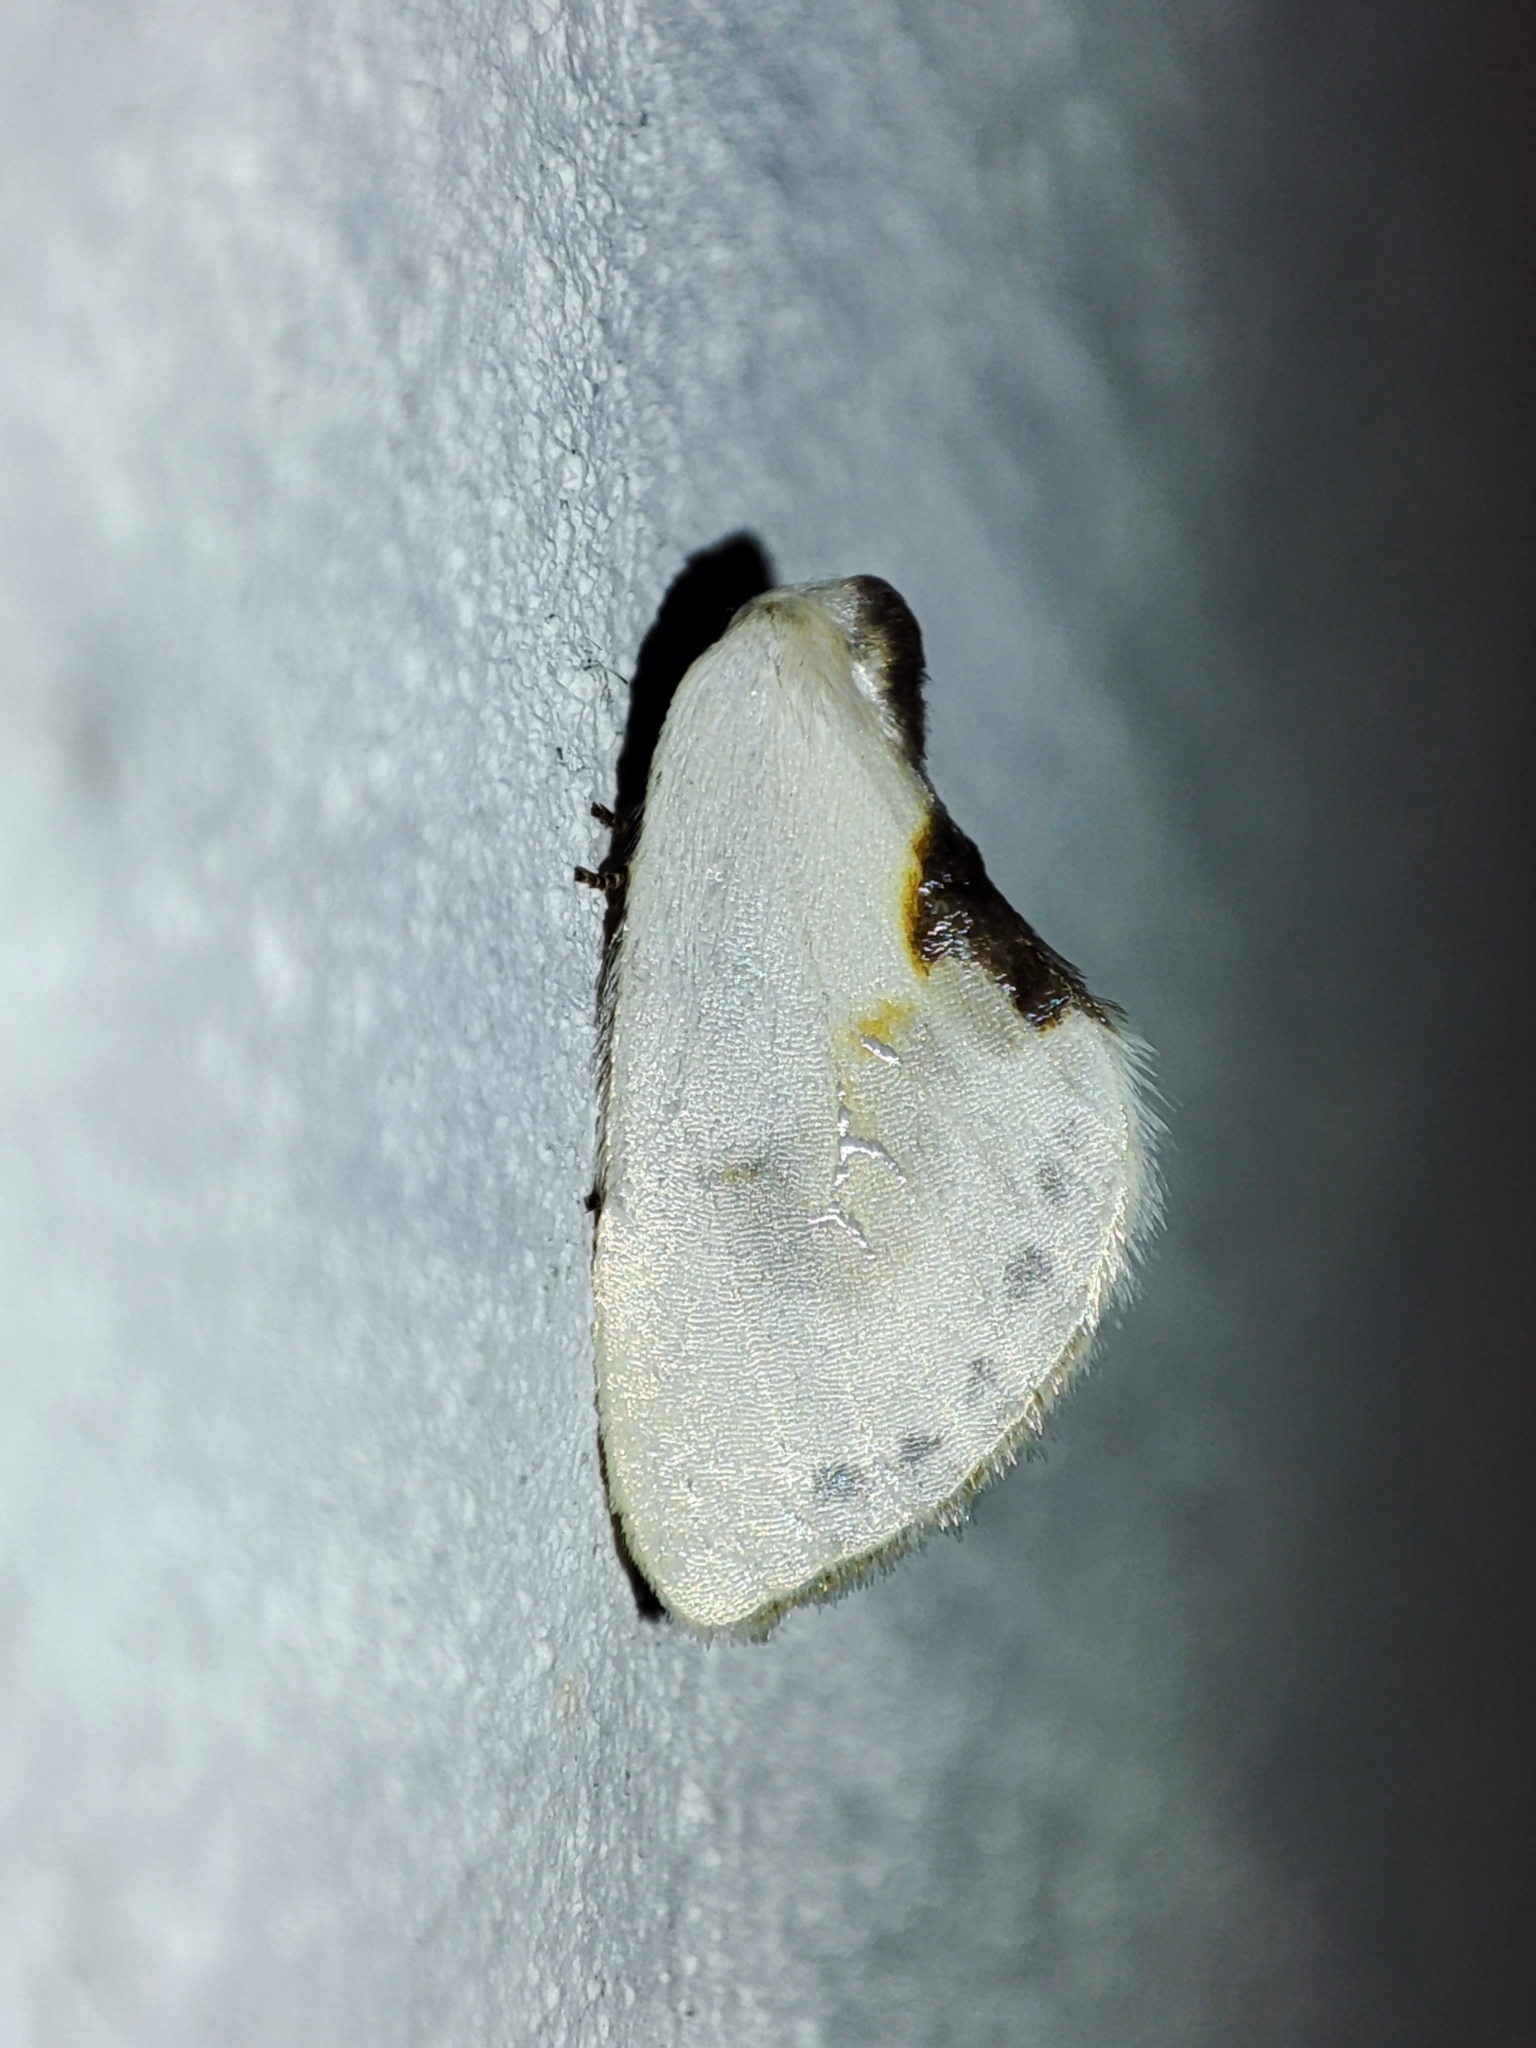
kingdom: Animalia
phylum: Arthropoda
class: Insecta
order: Lepidoptera
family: Drepanidae
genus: Cilix
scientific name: Cilix glaucata
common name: Chinese character
